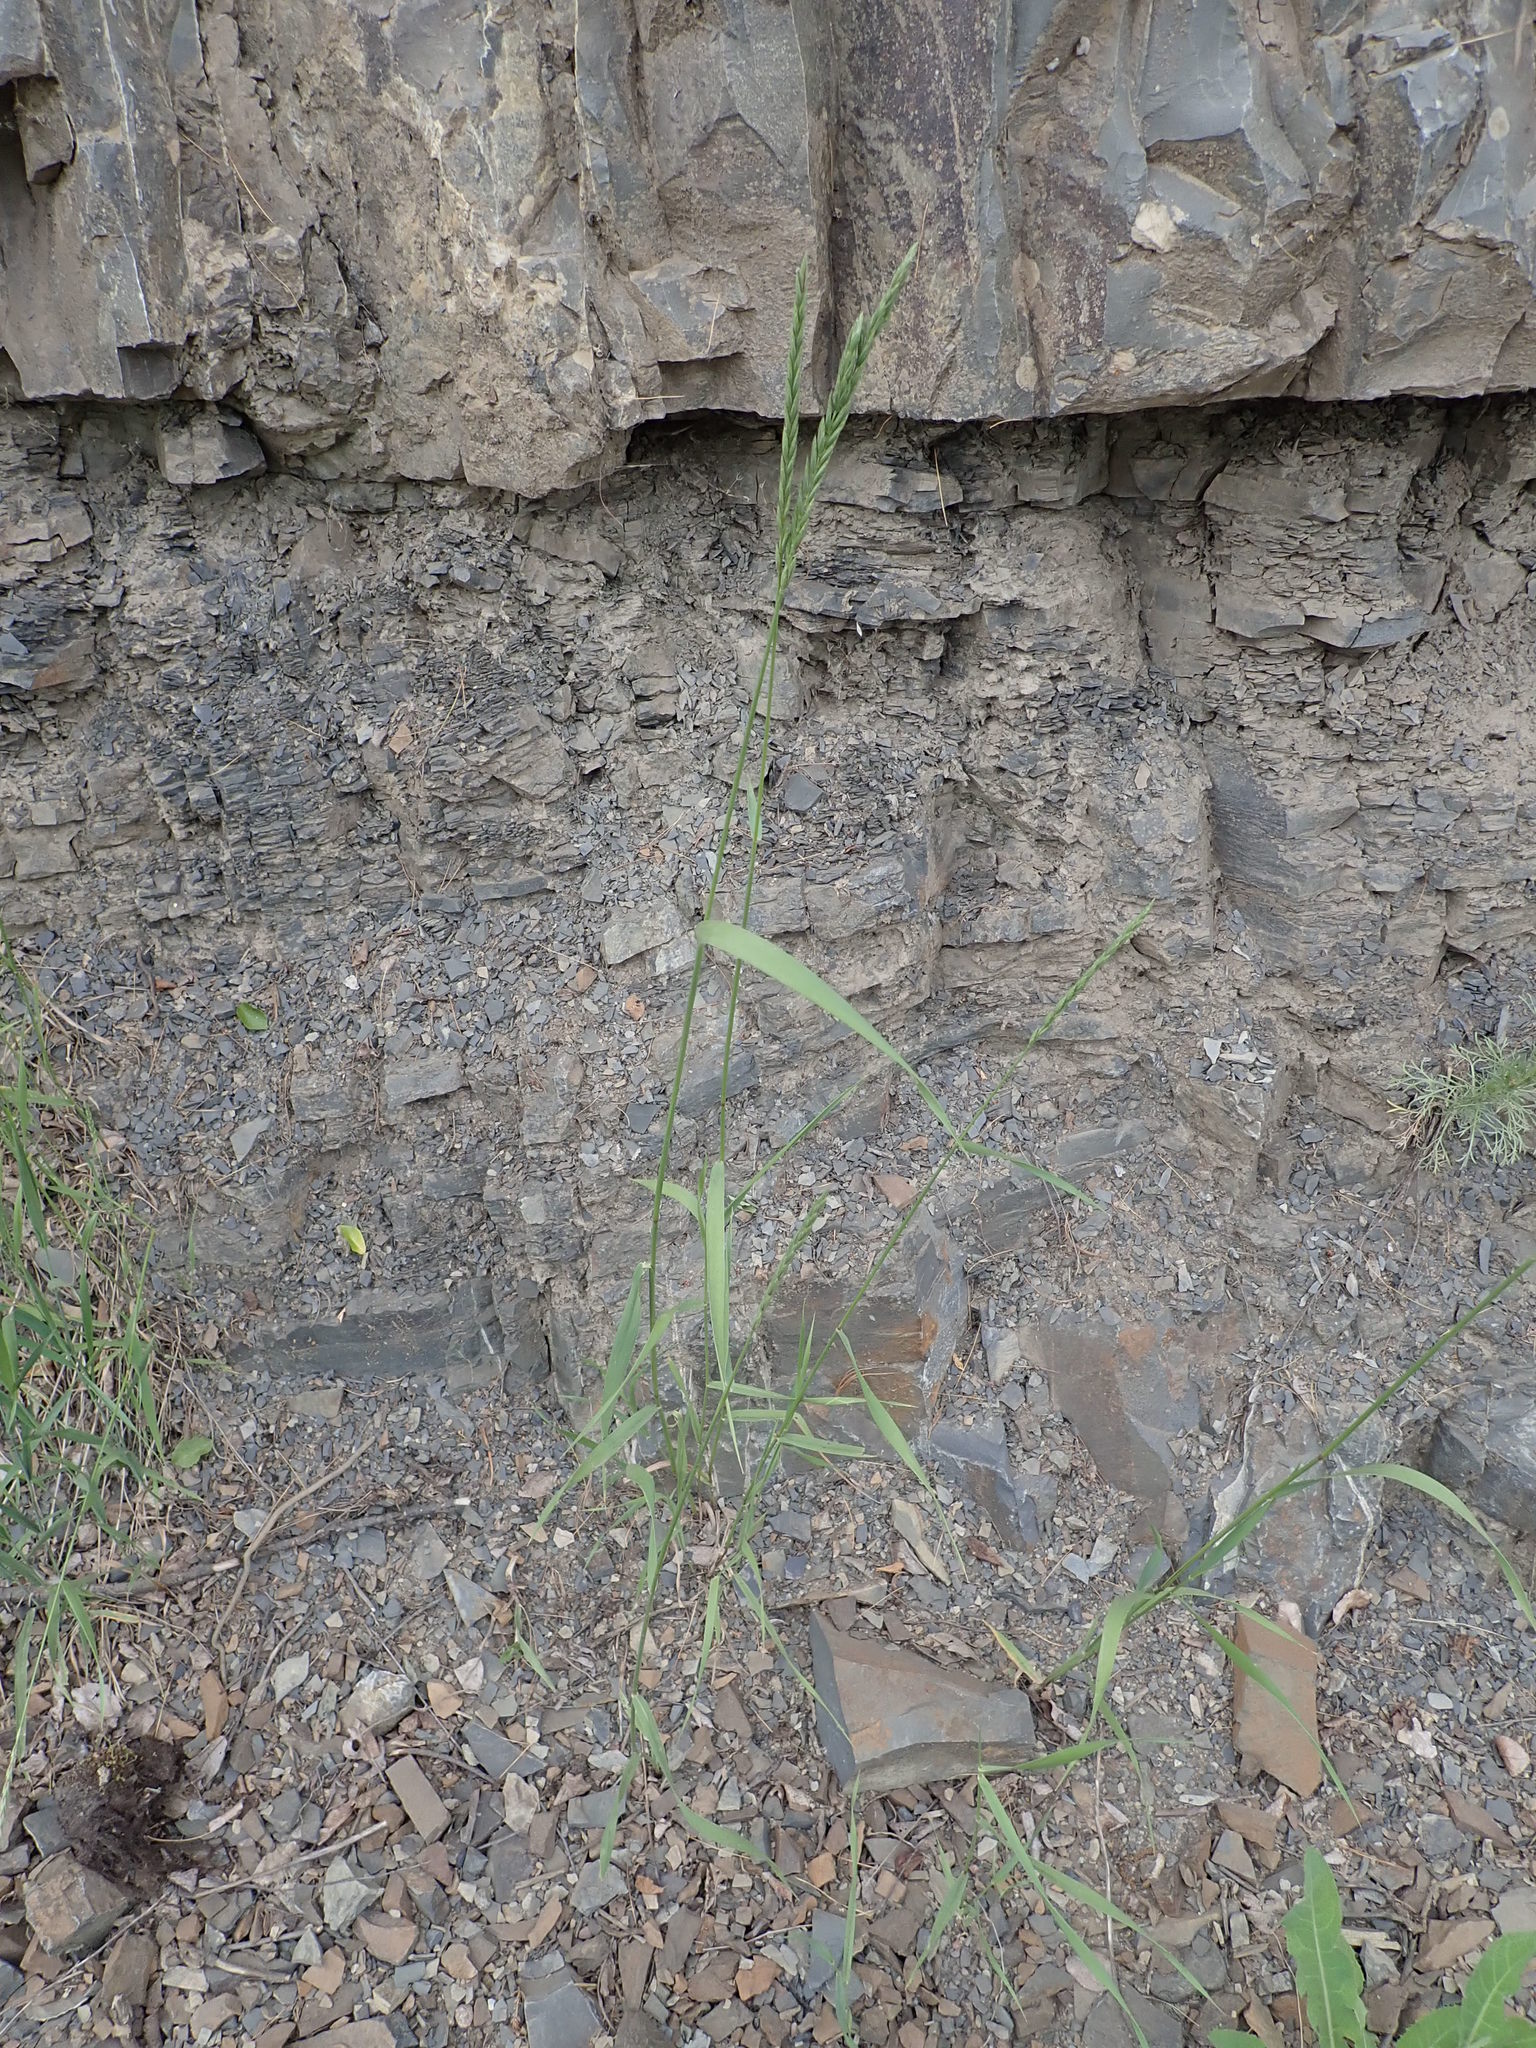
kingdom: Plantae
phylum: Tracheophyta
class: Liliopsida
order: Poales
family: Poaceae
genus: Elymus
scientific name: Elymus repens
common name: Quackgrass
